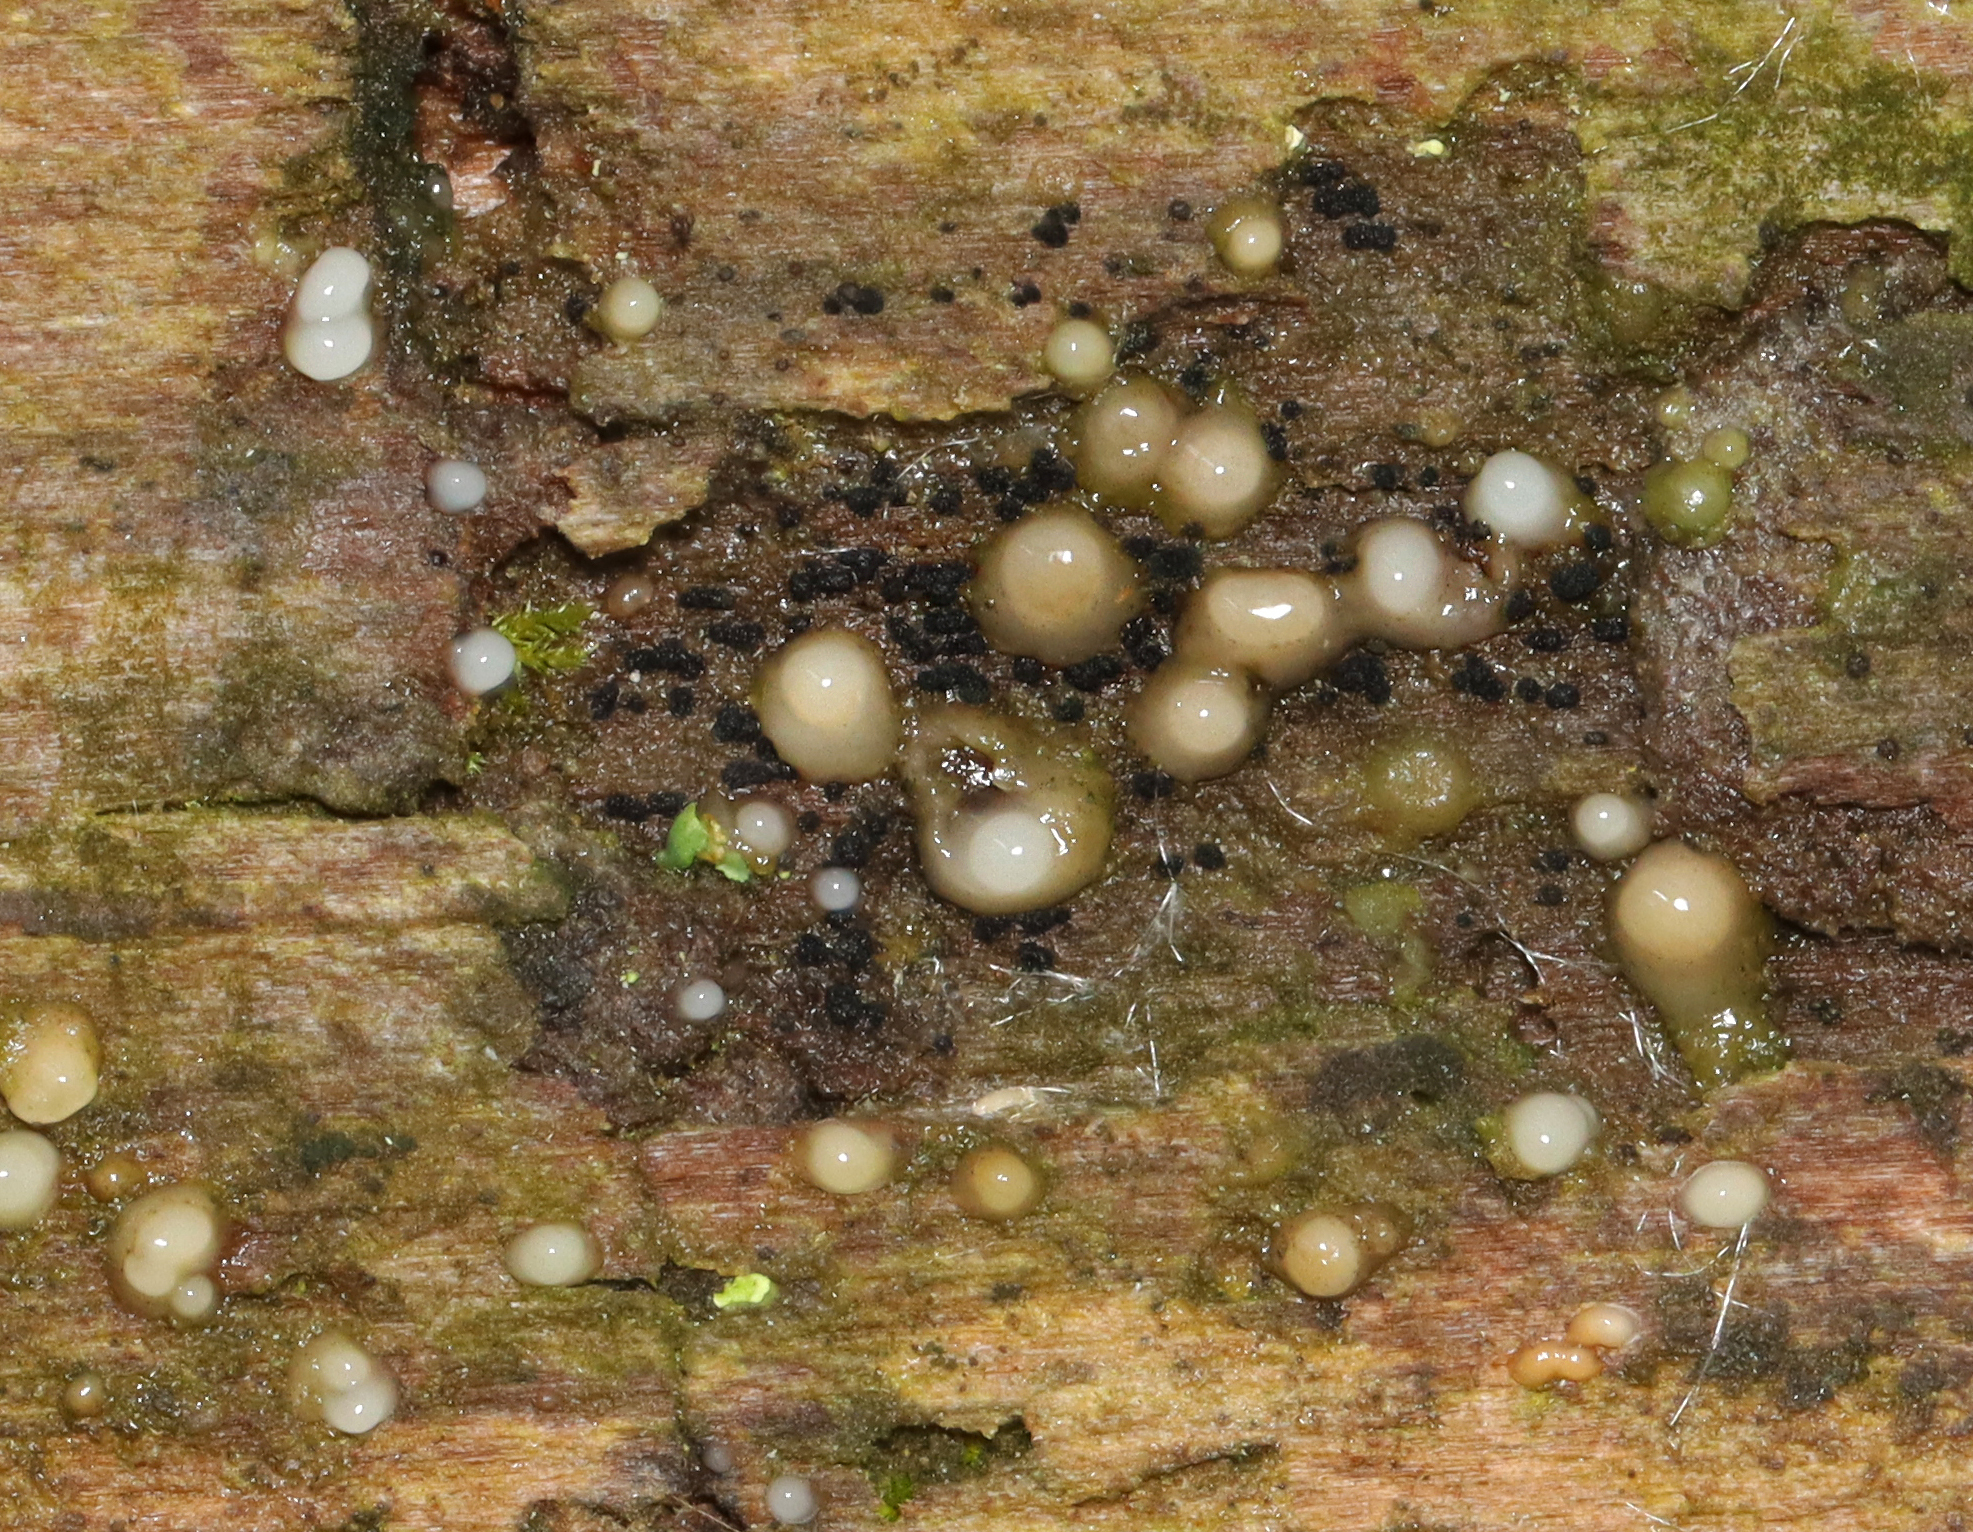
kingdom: Fungi
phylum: Basidiomycota
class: Atractiellomycetes
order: Atractiellales
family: Phleogenaceae
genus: Helicogloea
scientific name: Helicogloea compressa
